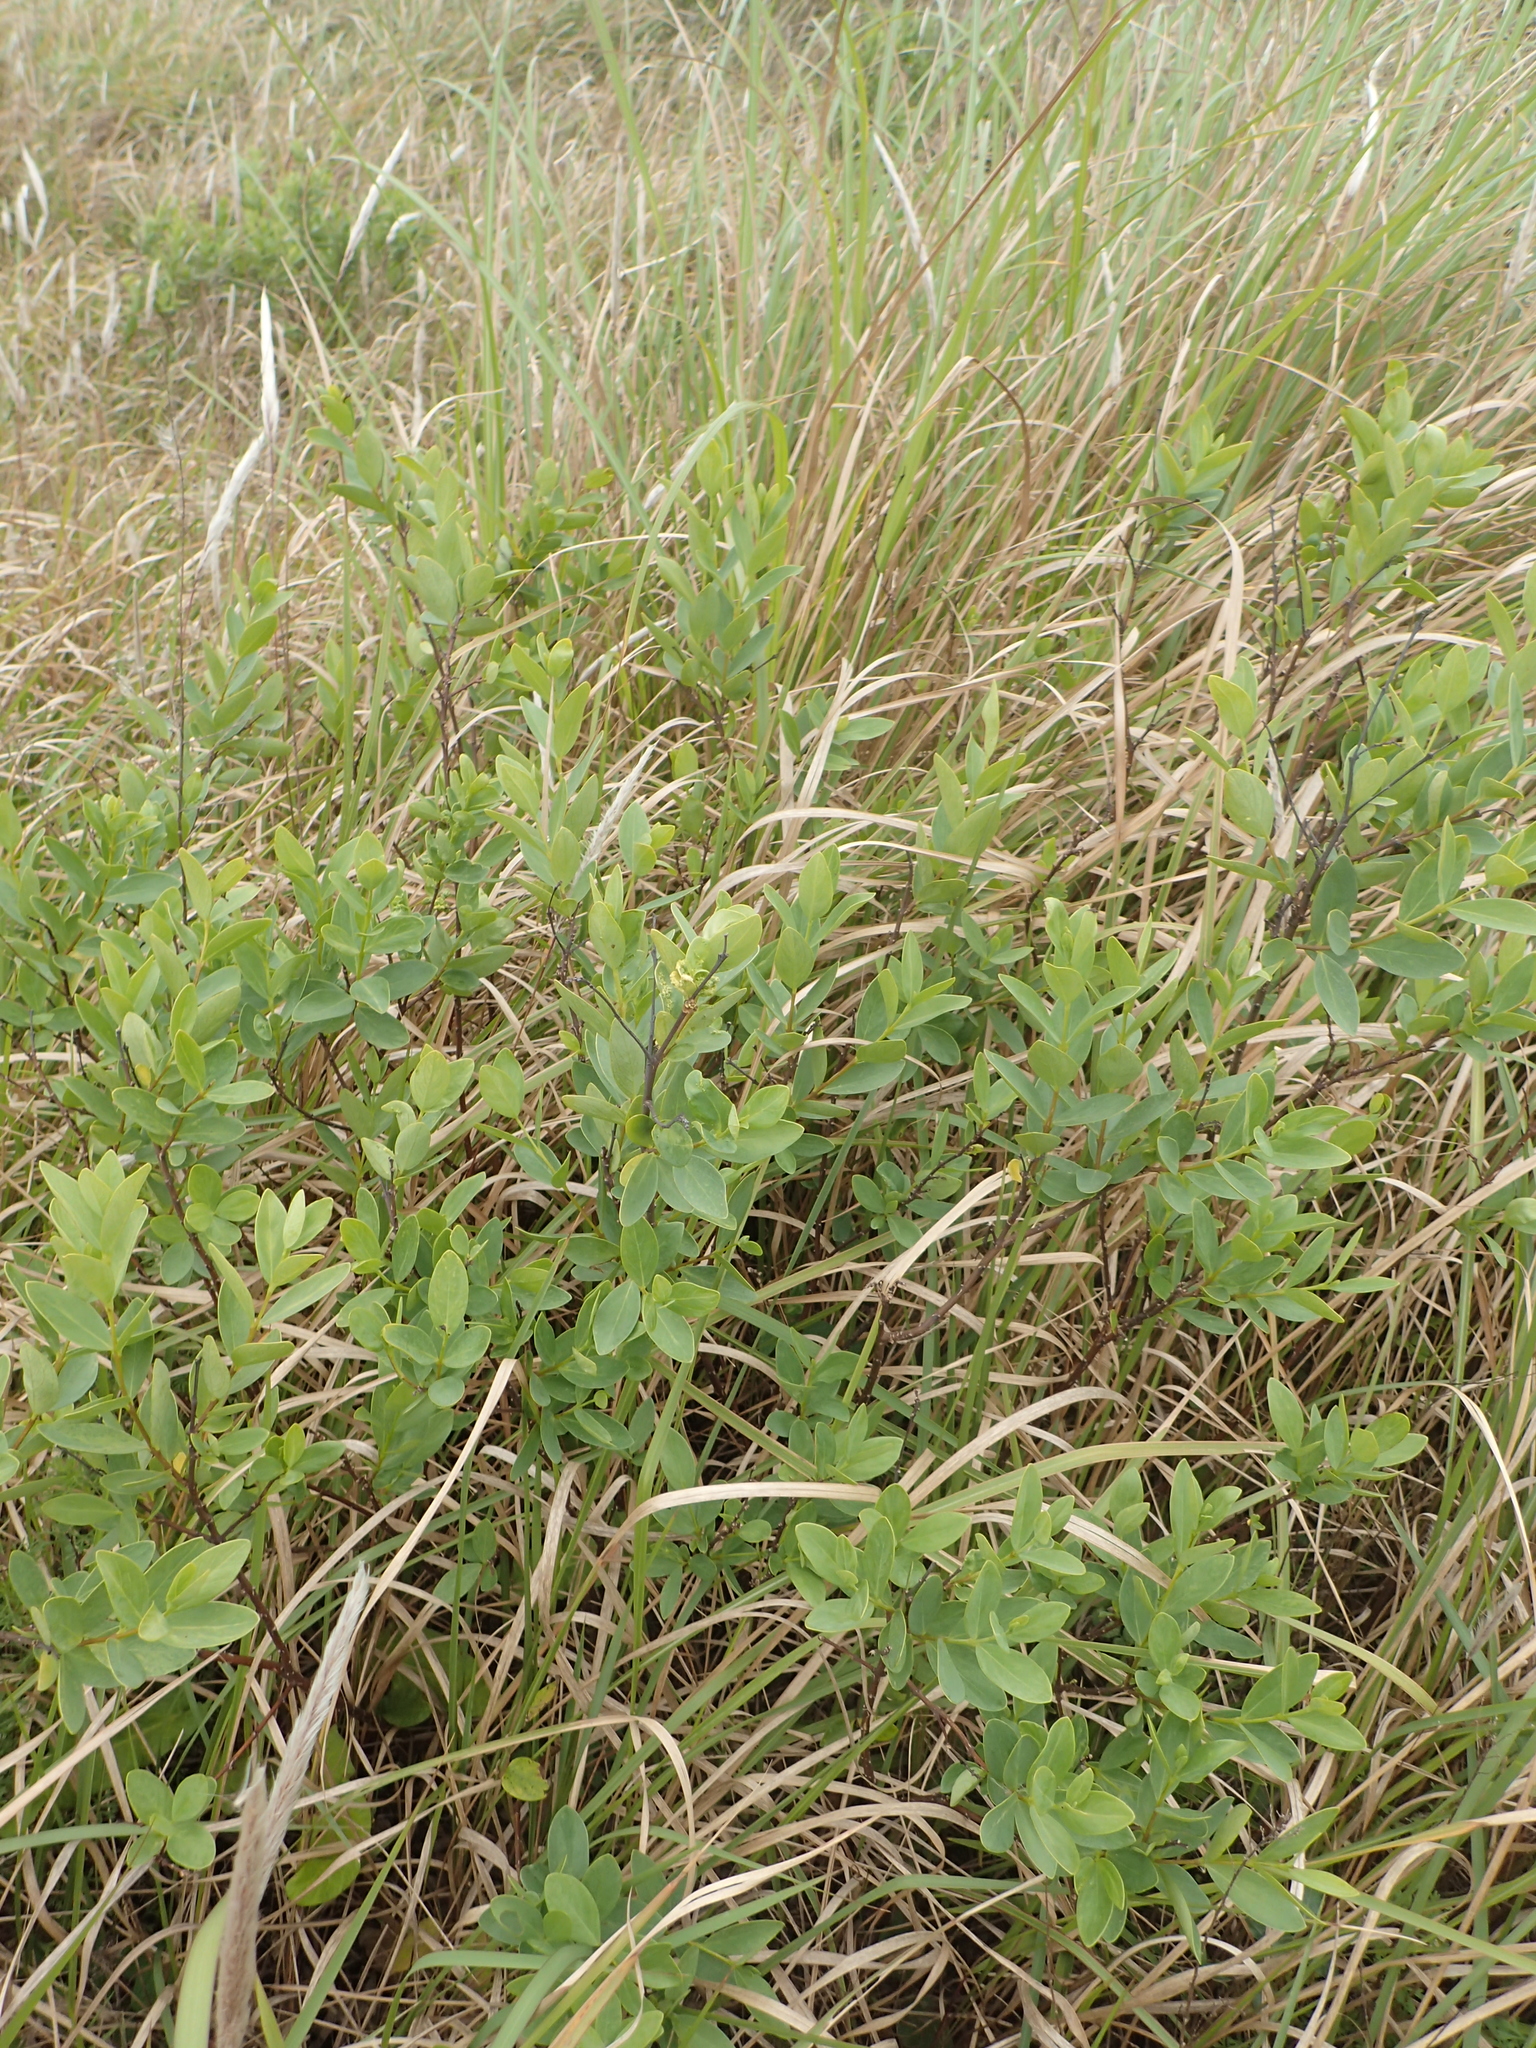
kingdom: Plantae
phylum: Tracheophyta
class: Magnoliopsida
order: Malvales
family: Thymelaeaceae
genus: Wikstroemia
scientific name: Wikstroemia indica
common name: Tiebush
